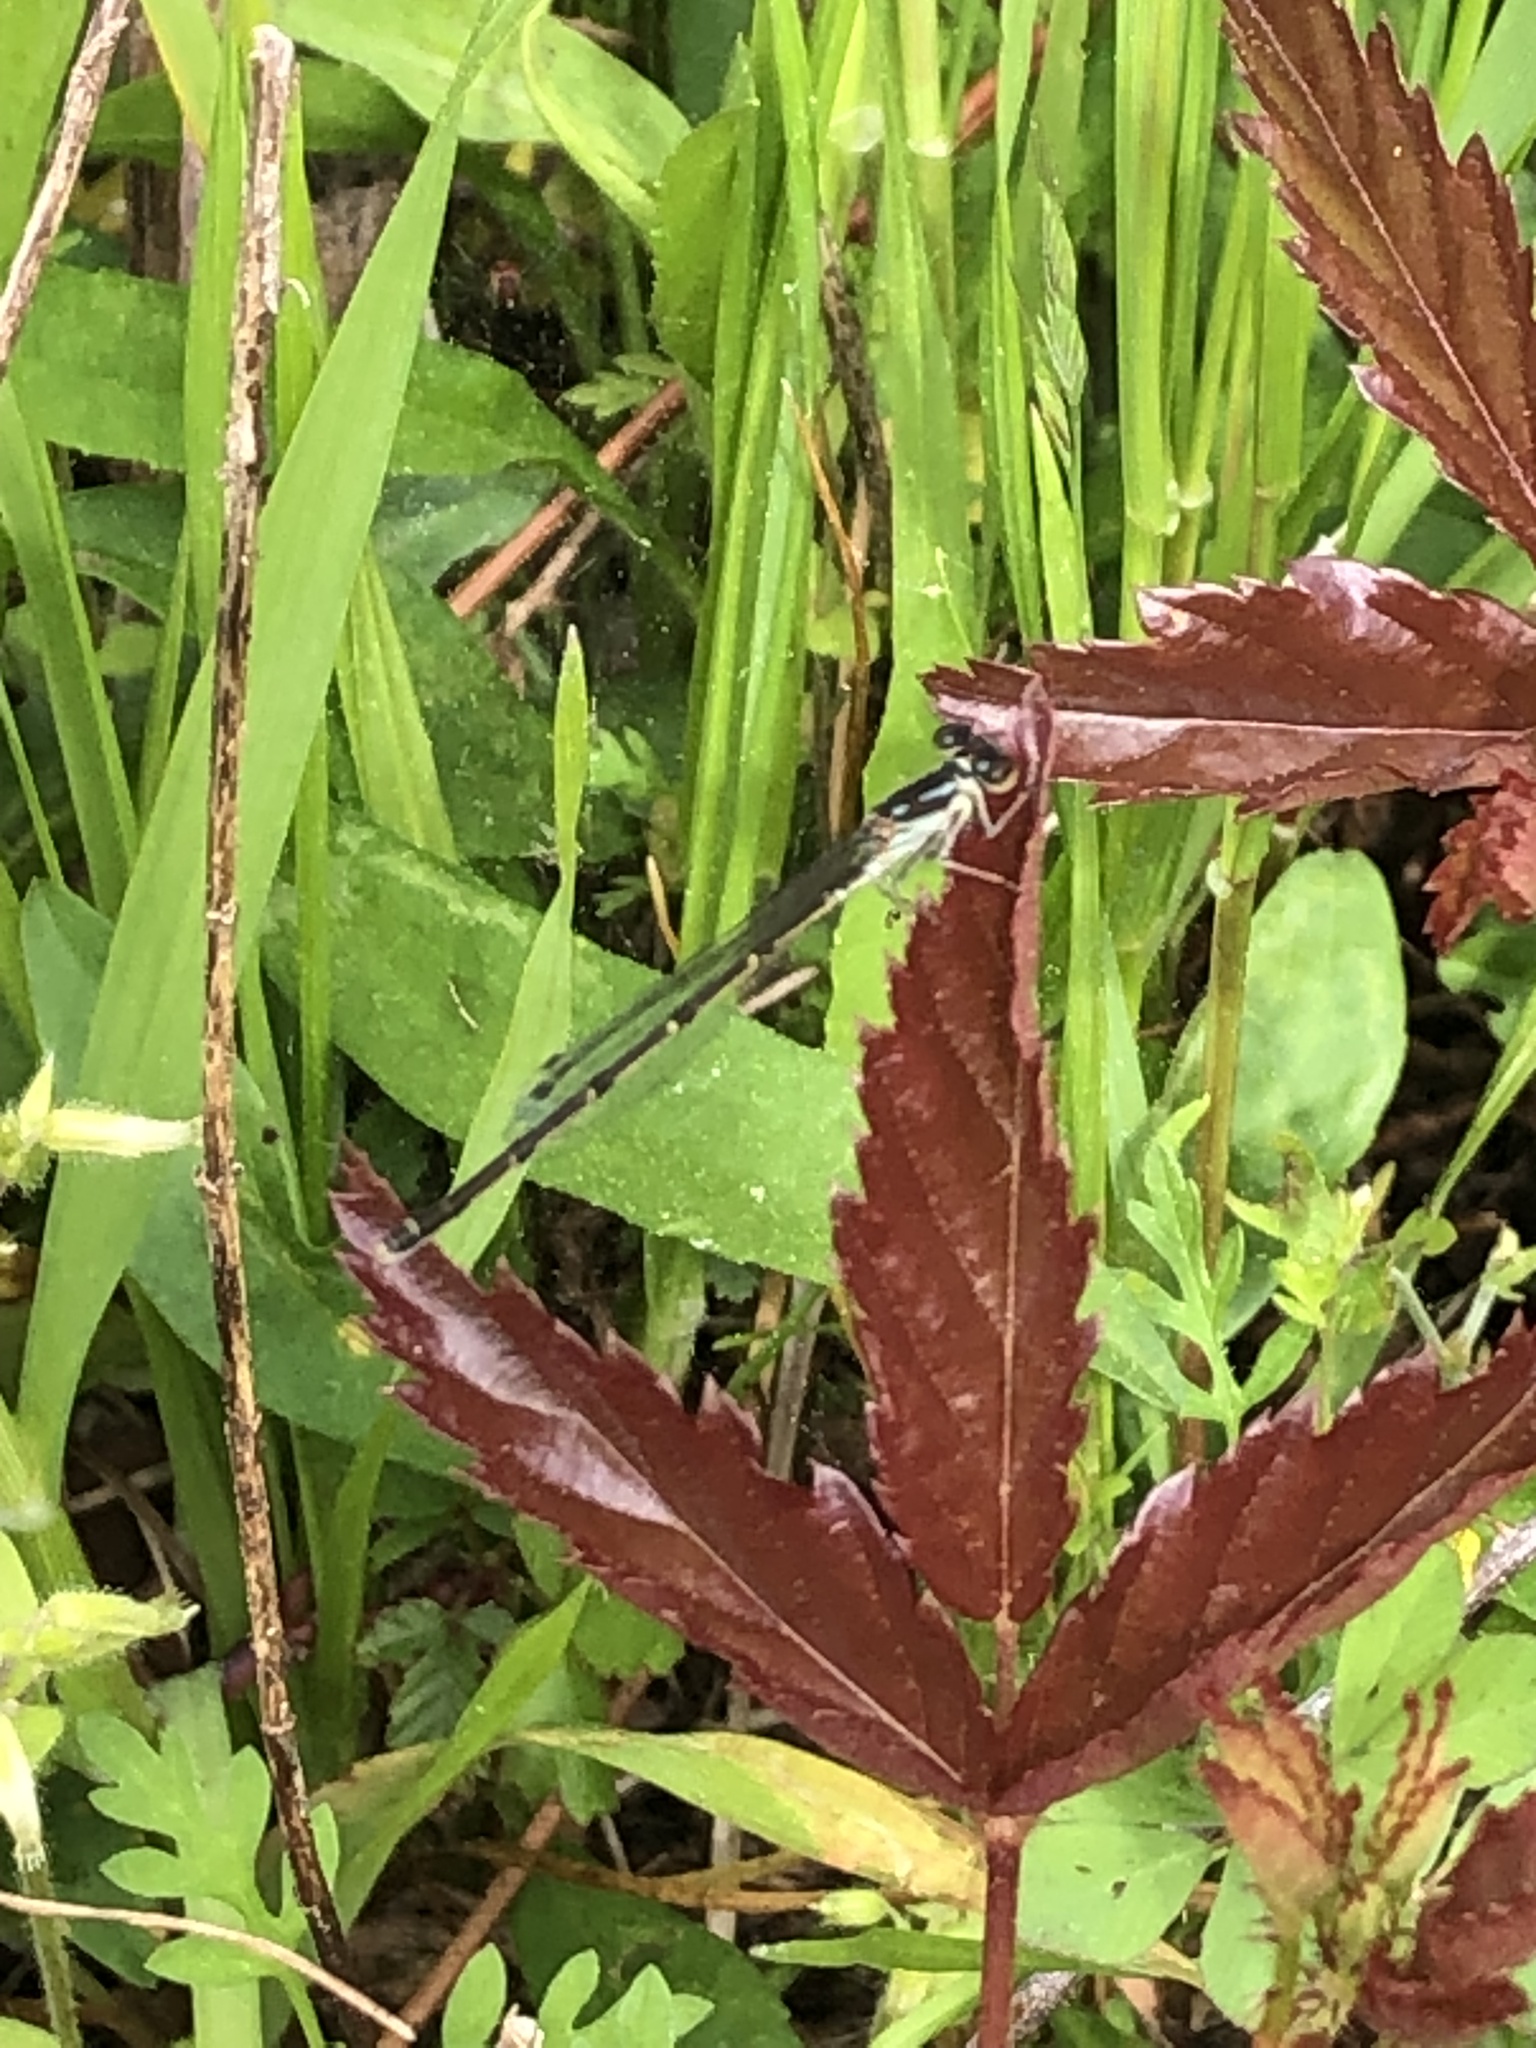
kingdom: Animalia
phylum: Arthropoda
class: Insecta
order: Odonata
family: Coenagrionidae
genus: Ischnura
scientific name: Ischnura posita
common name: Fragile forktail
